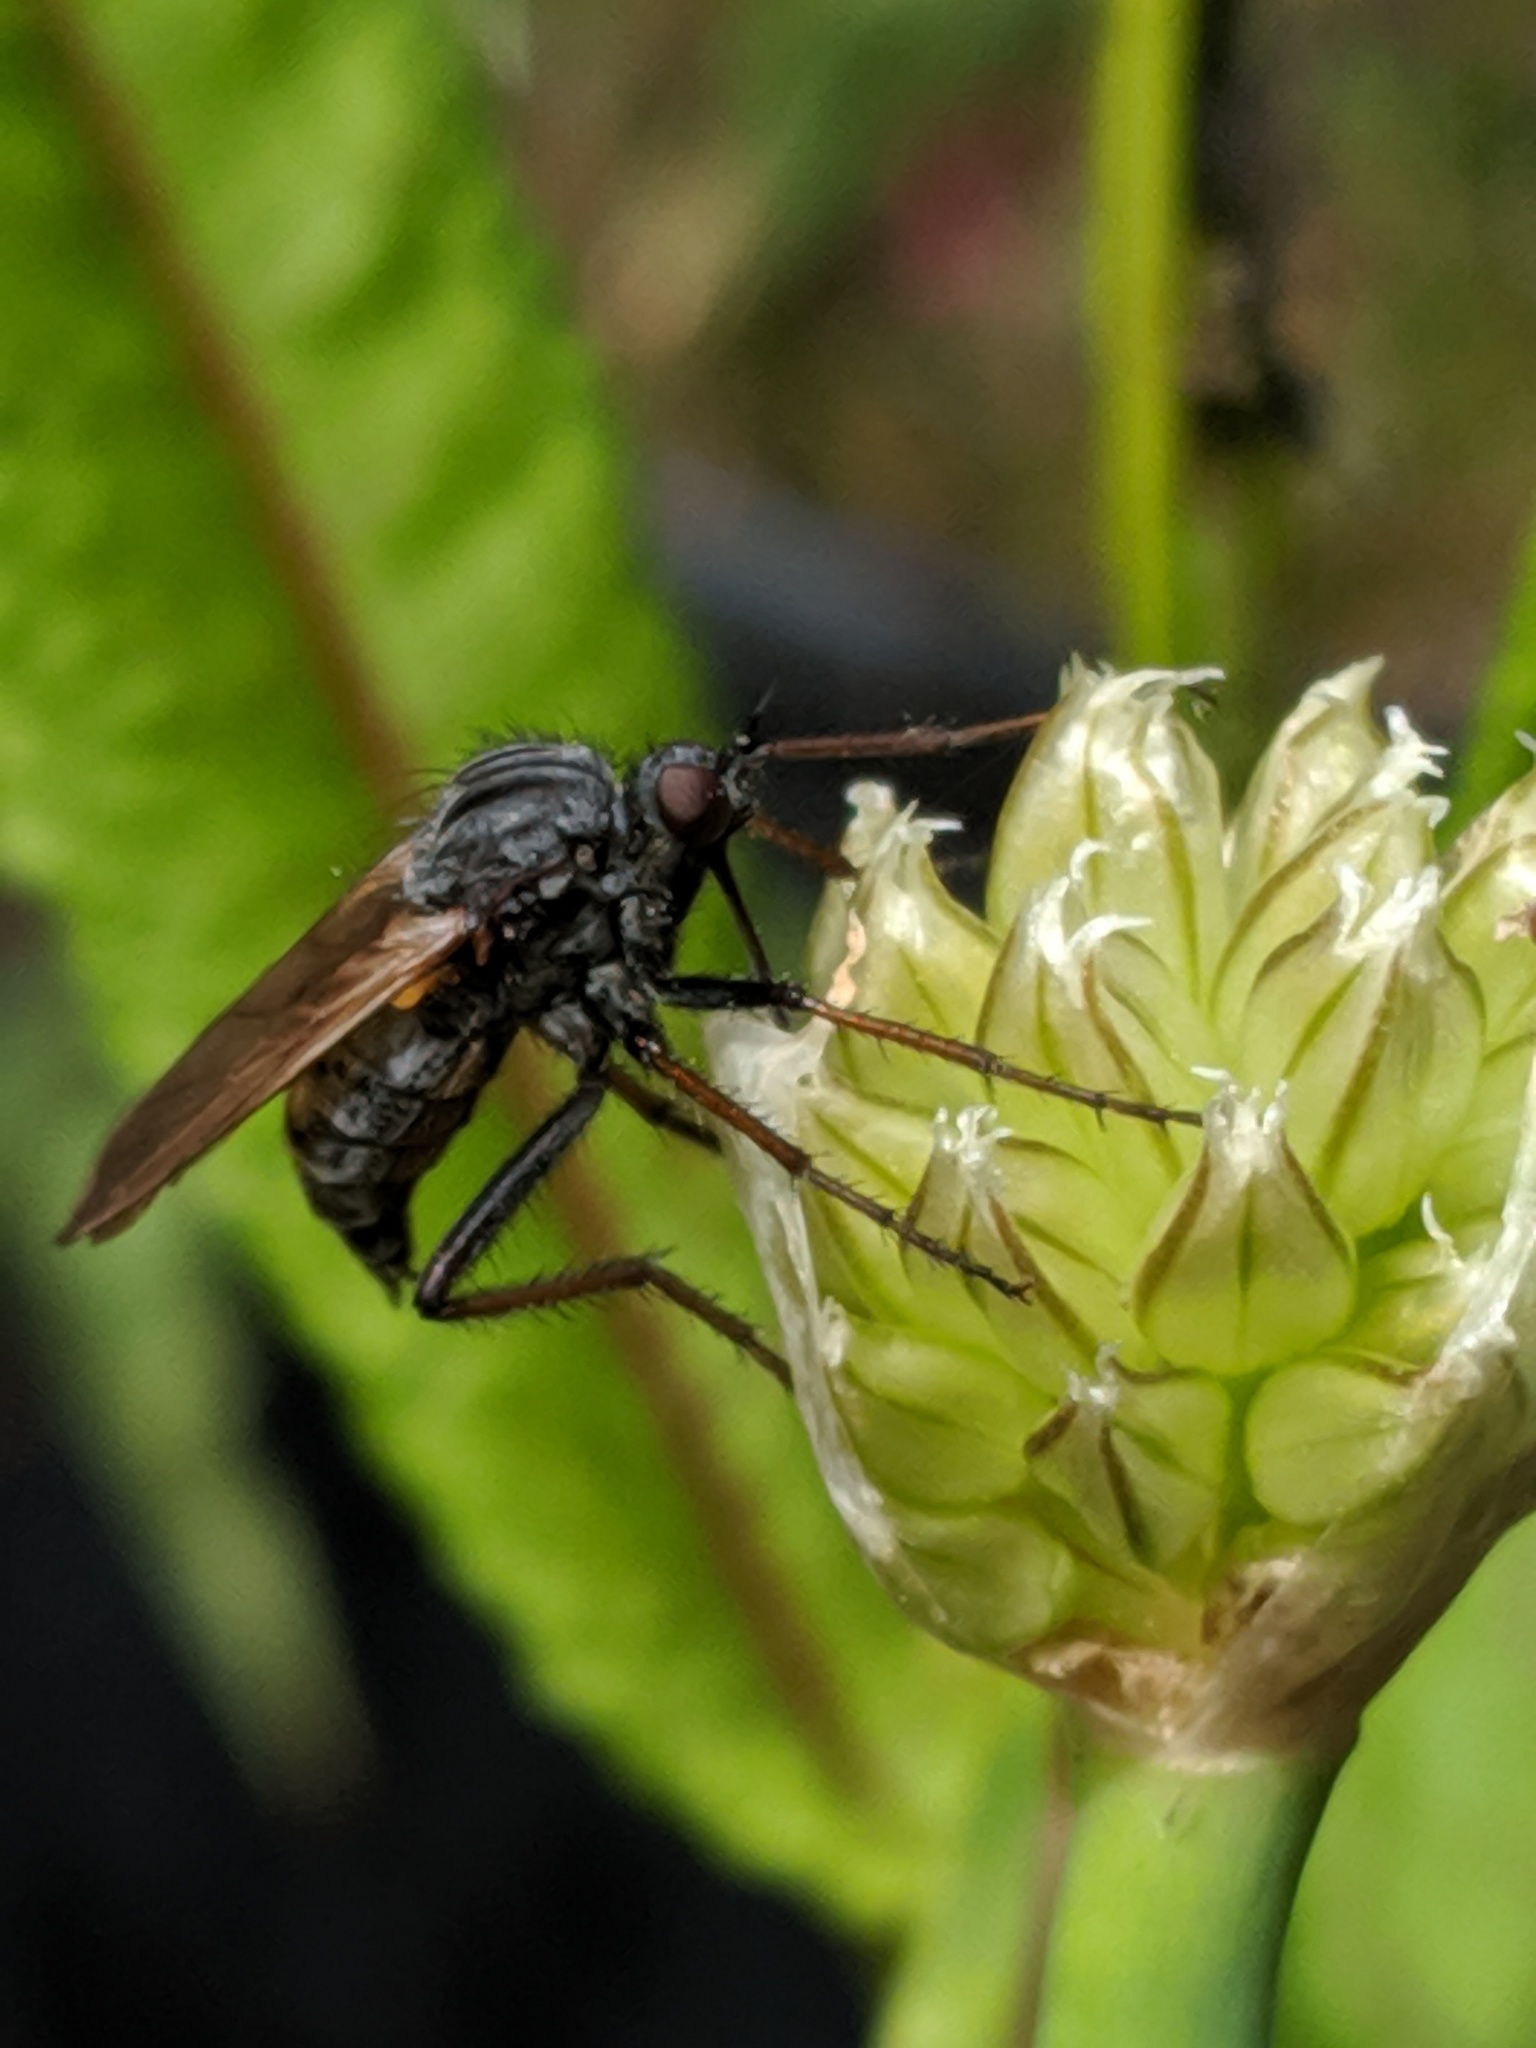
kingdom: Animalia
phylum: Arthropoda
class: Insecta
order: Diptera
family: Empididae
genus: Empis
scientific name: Empis tessellata
